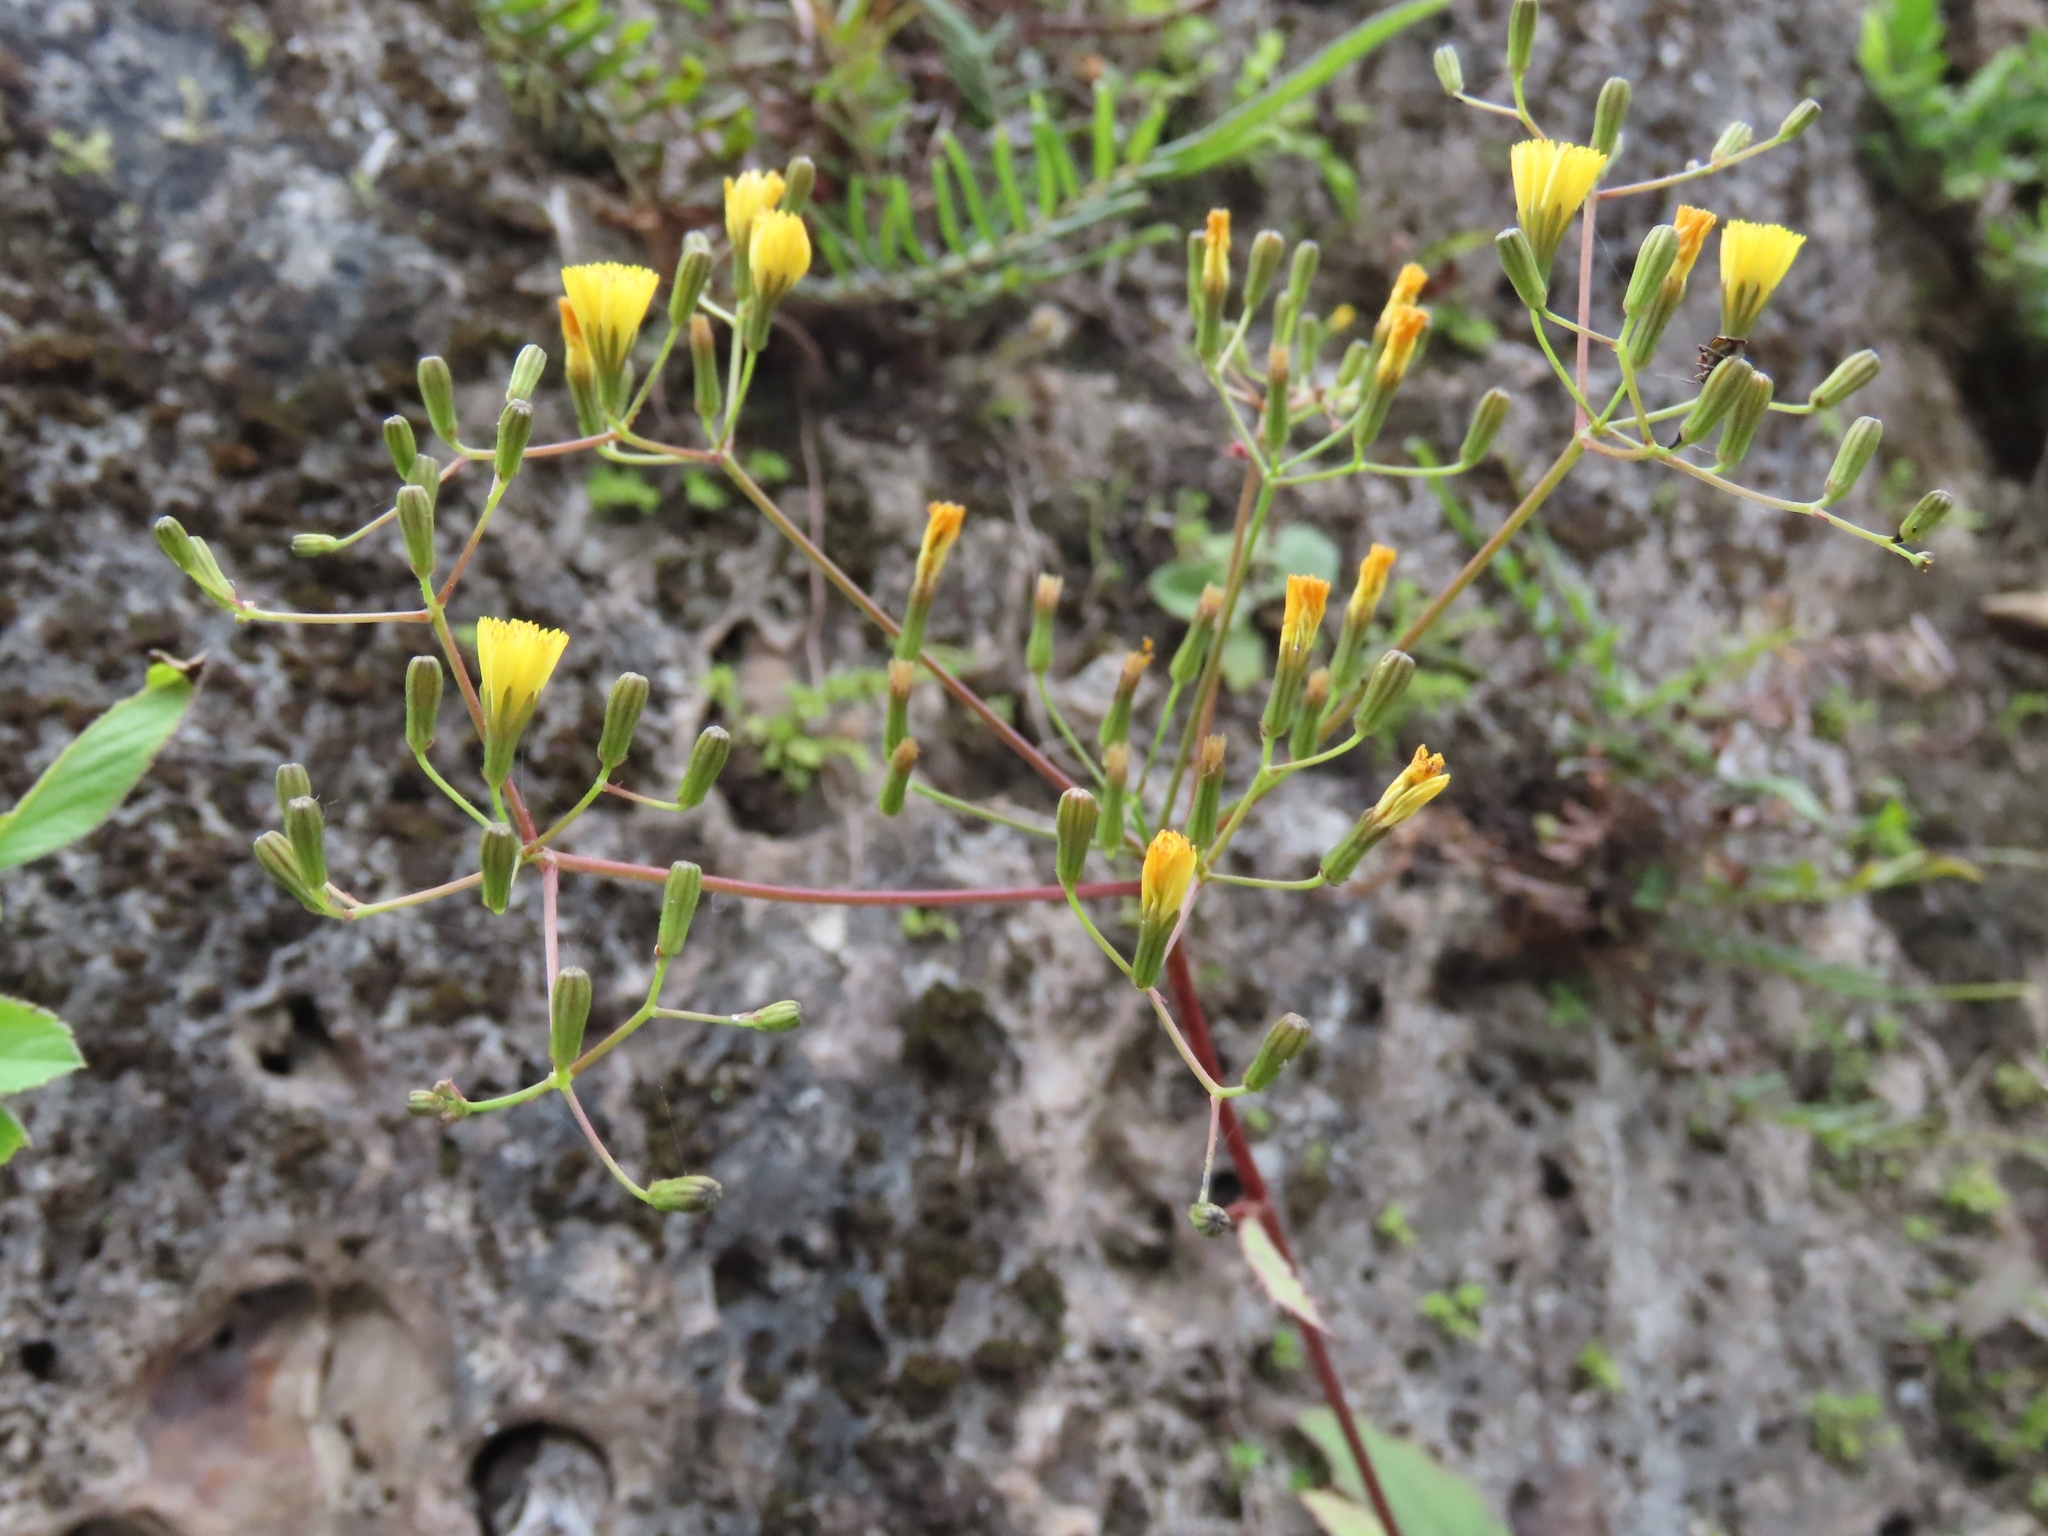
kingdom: Plantae
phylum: Tracheophyta
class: Magnoliopsida
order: Asterales
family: Asteraceae
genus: Ixeridium
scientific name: Ixeridium laevigatum
